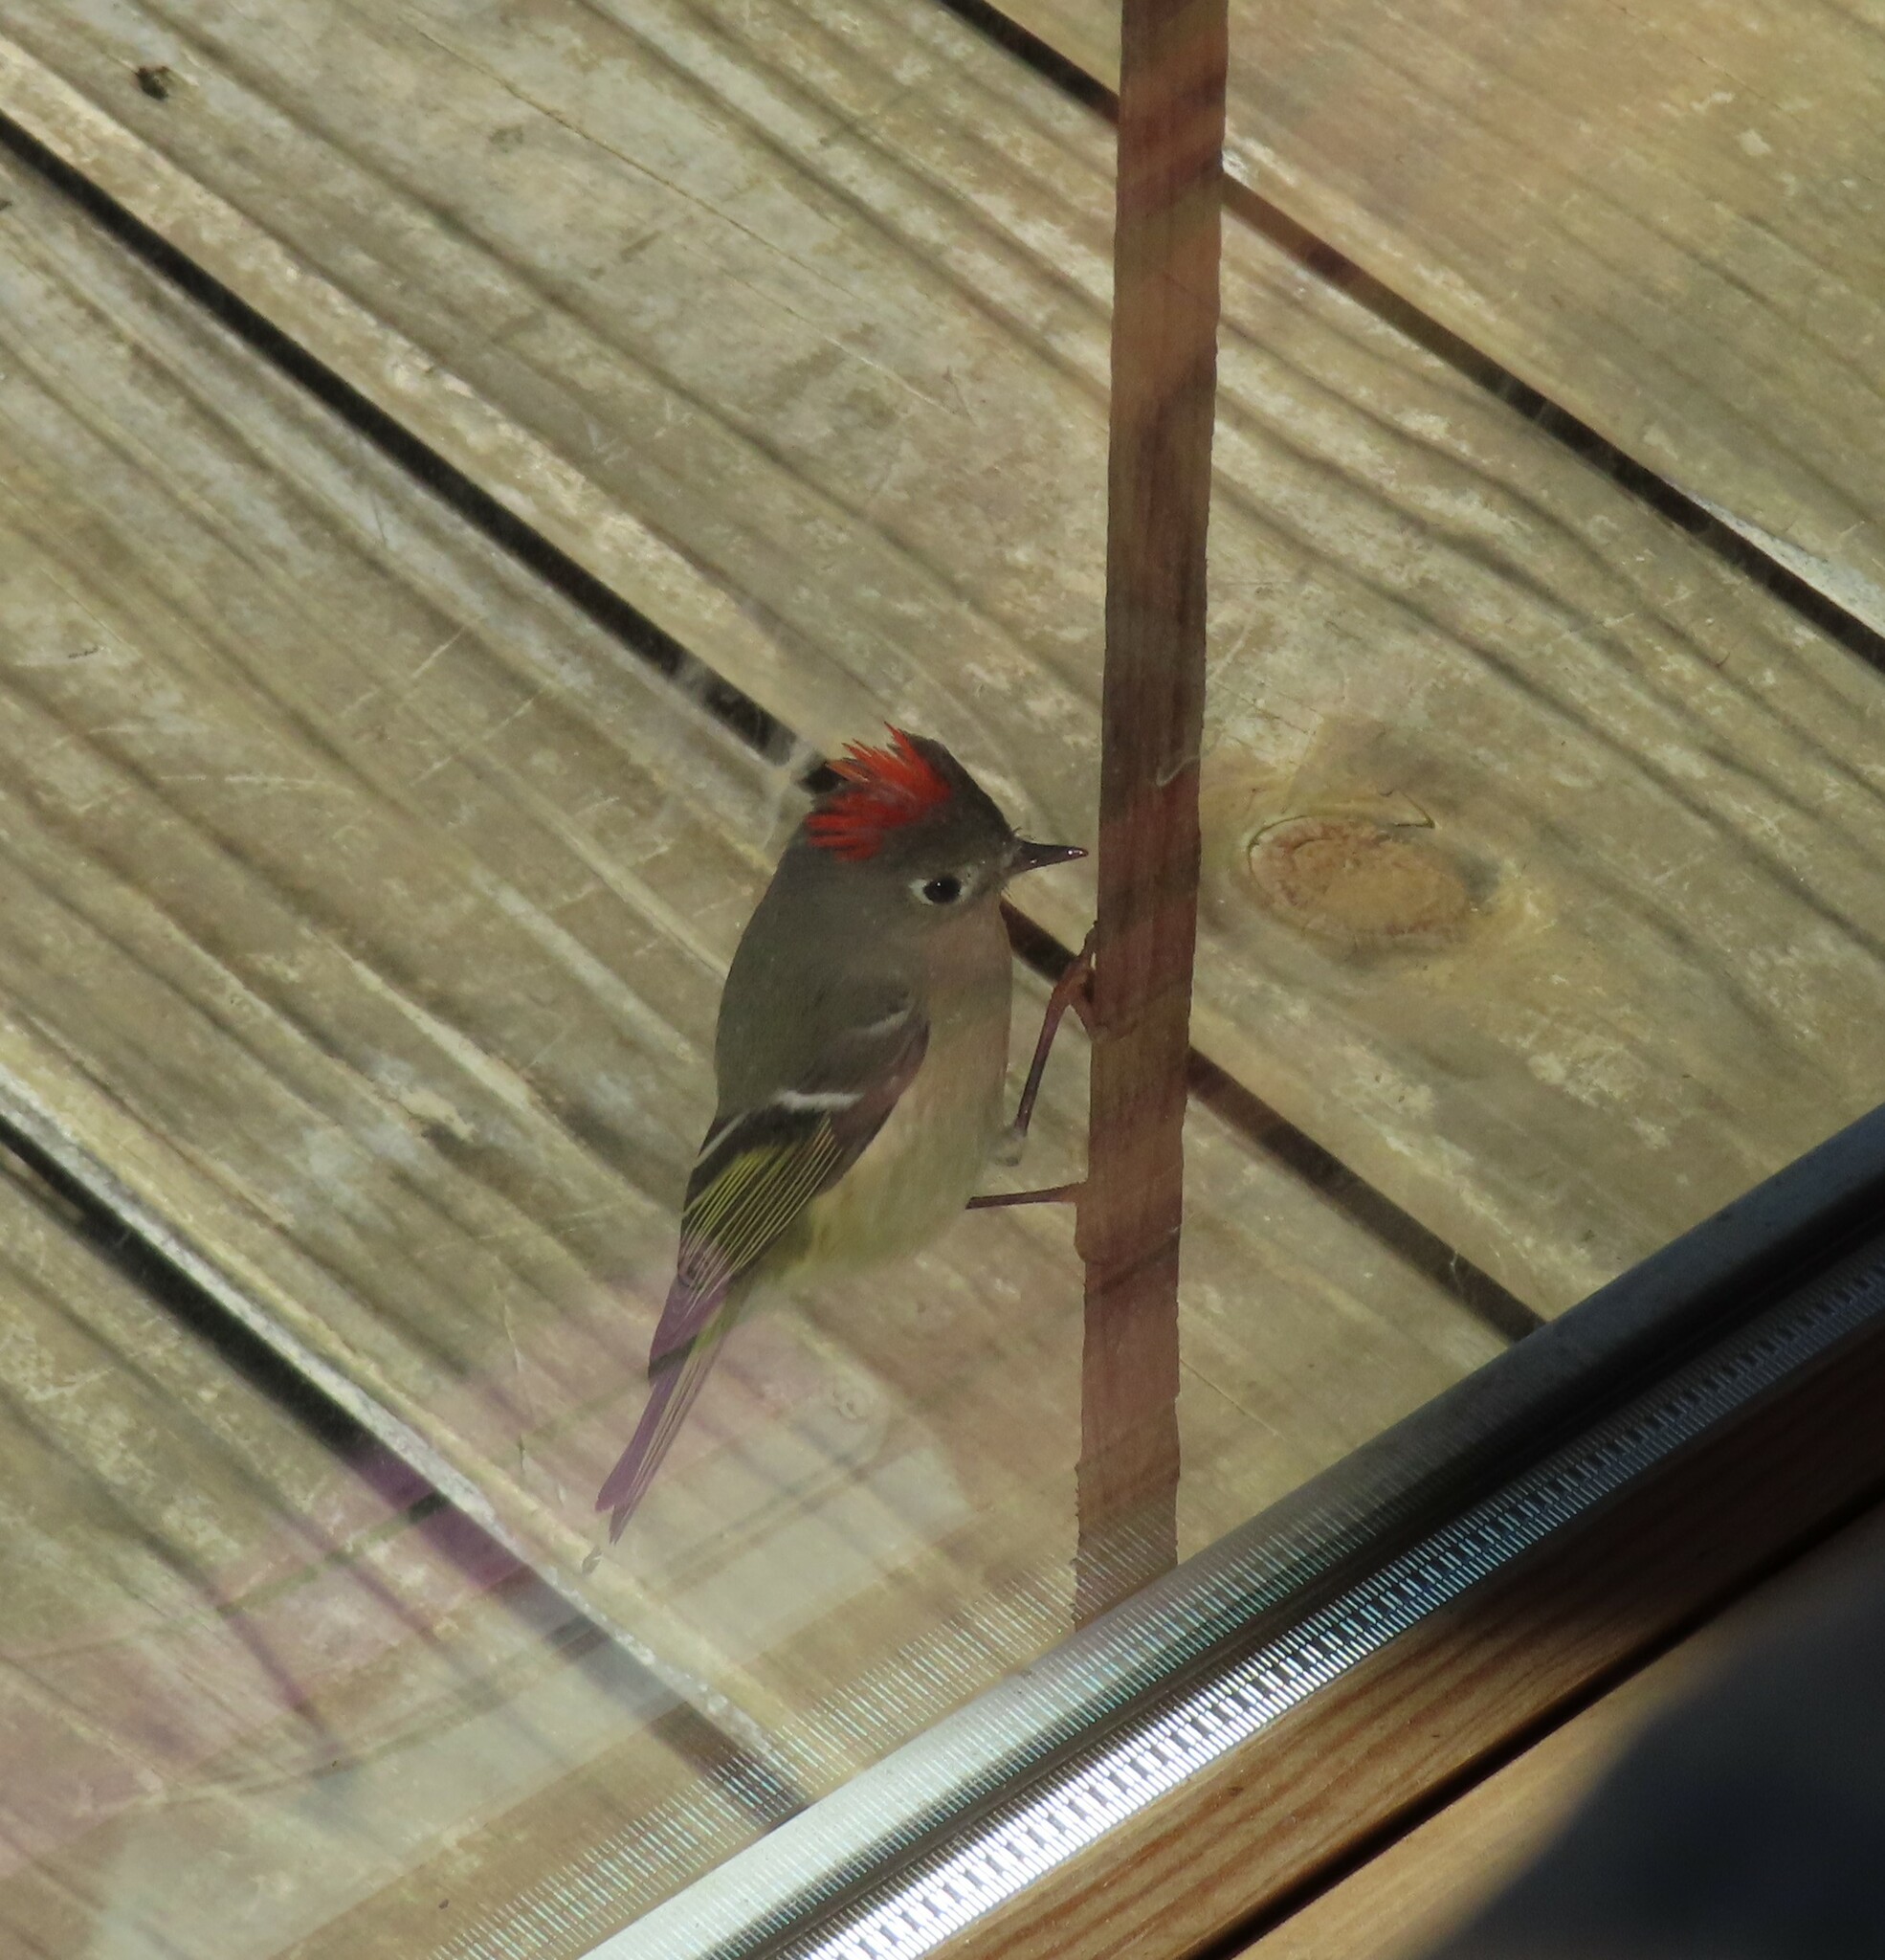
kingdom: Animalia
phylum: Chordata
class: Aves
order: Passeriformes
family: Regulidae
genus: Regulus
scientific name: Regulus calendula
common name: Ruby-crowned kinglet
